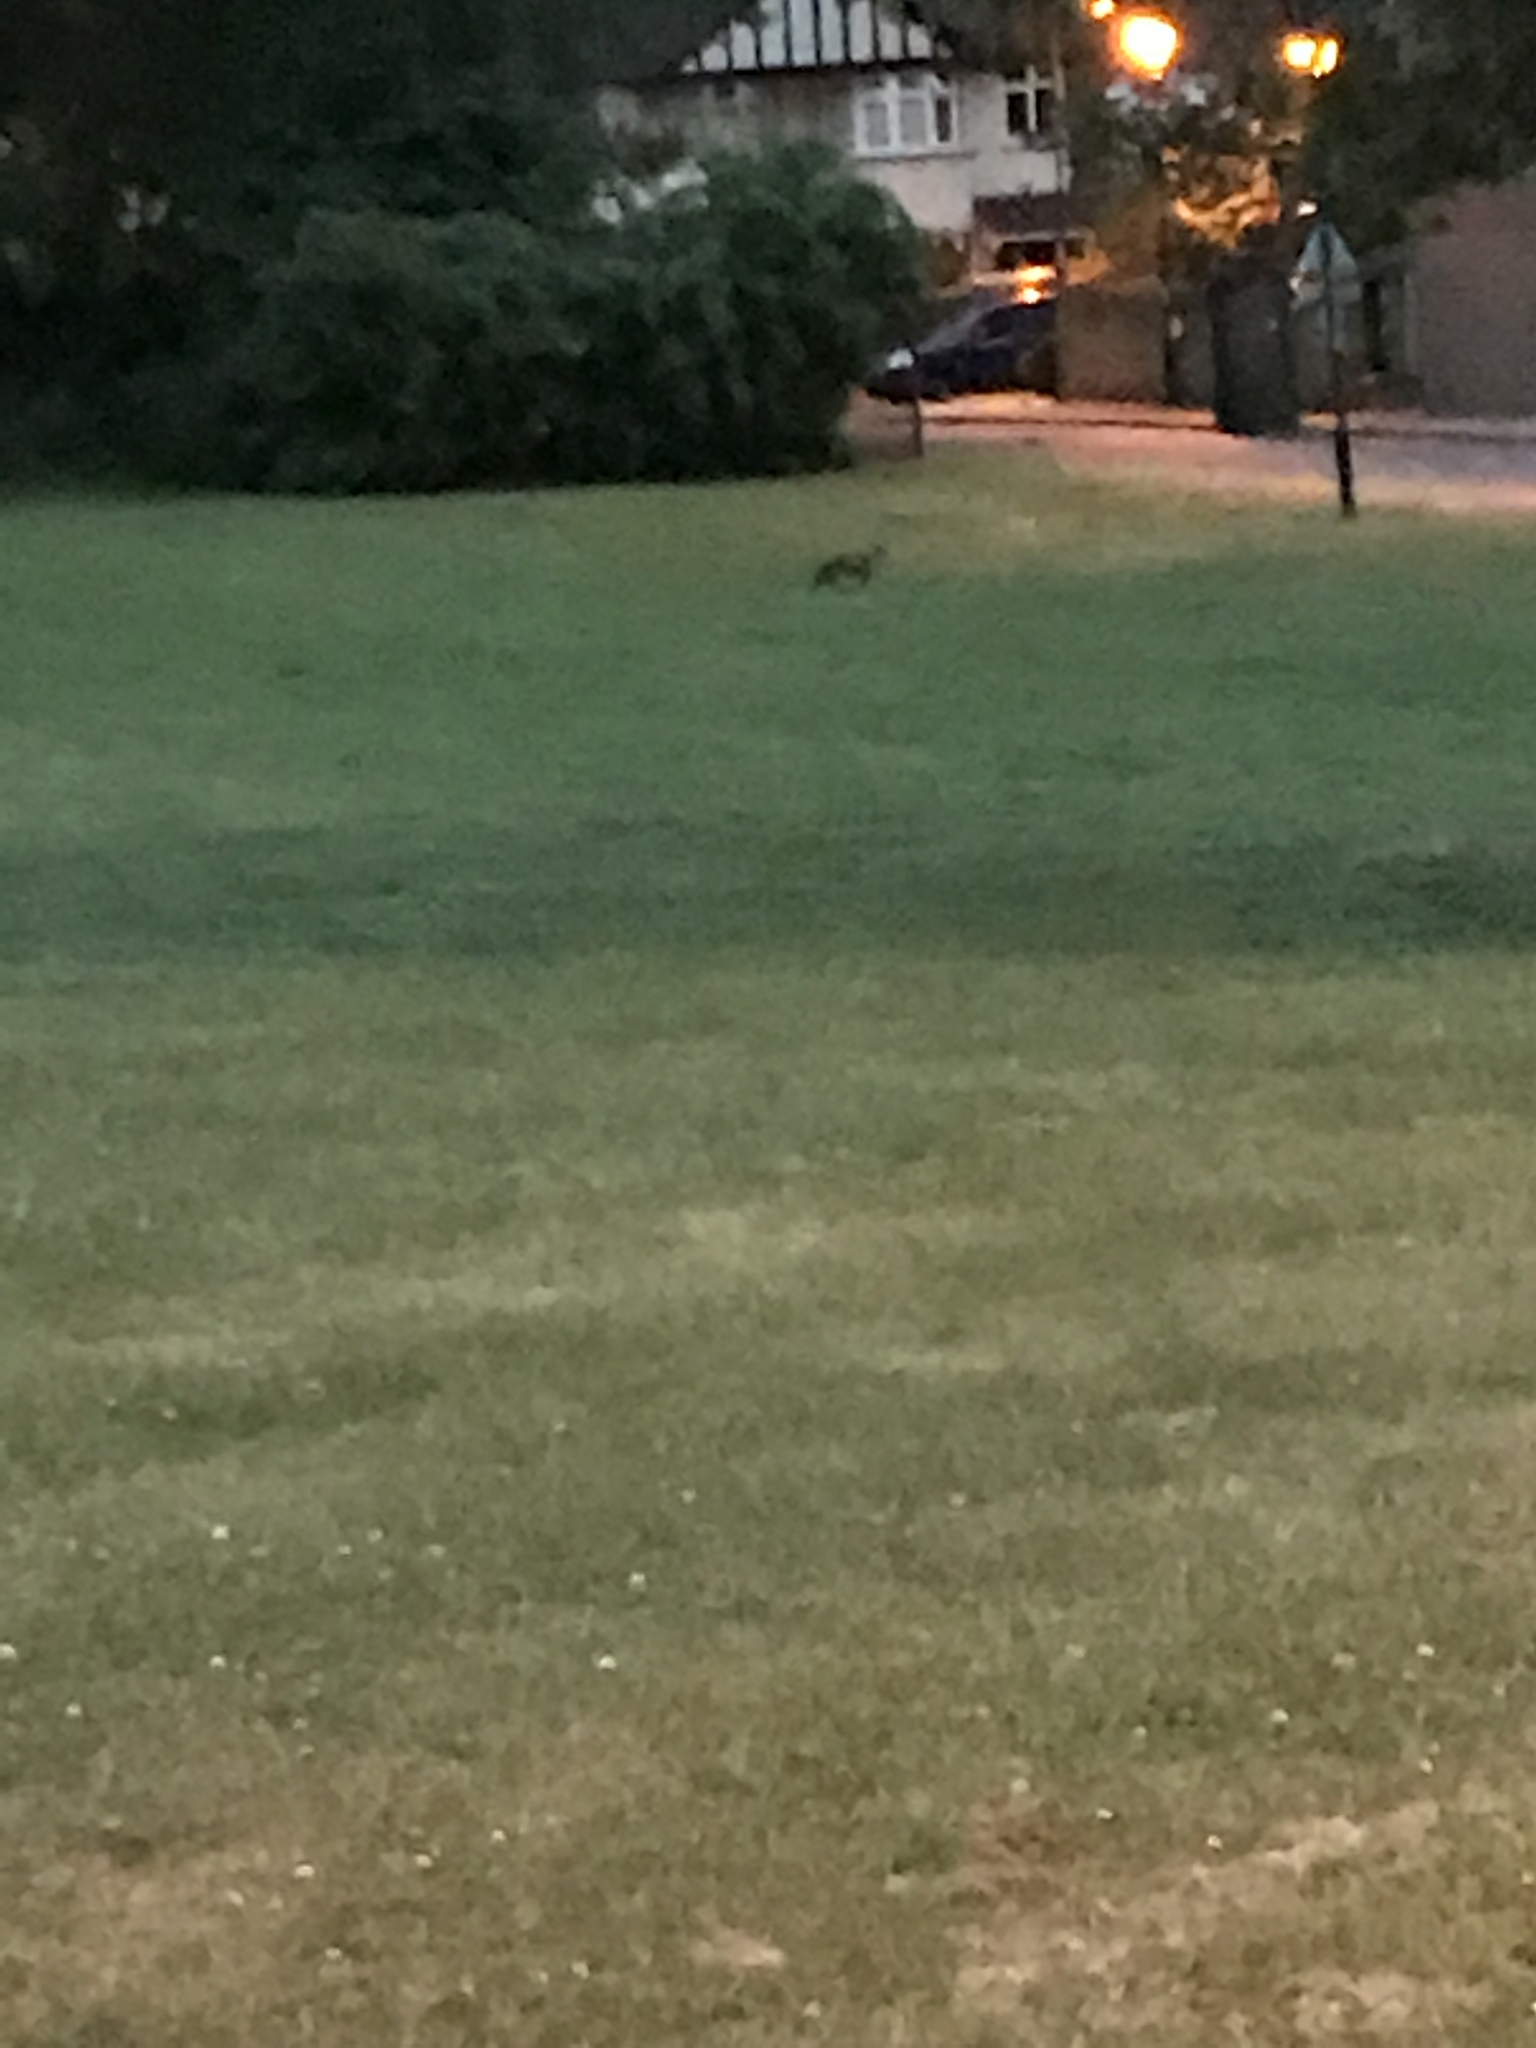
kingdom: Animalia
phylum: Chordata
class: Mammalia
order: Carnivora
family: Canidae
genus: Vulpes
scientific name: Vulpes vulpes
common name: Red fox
